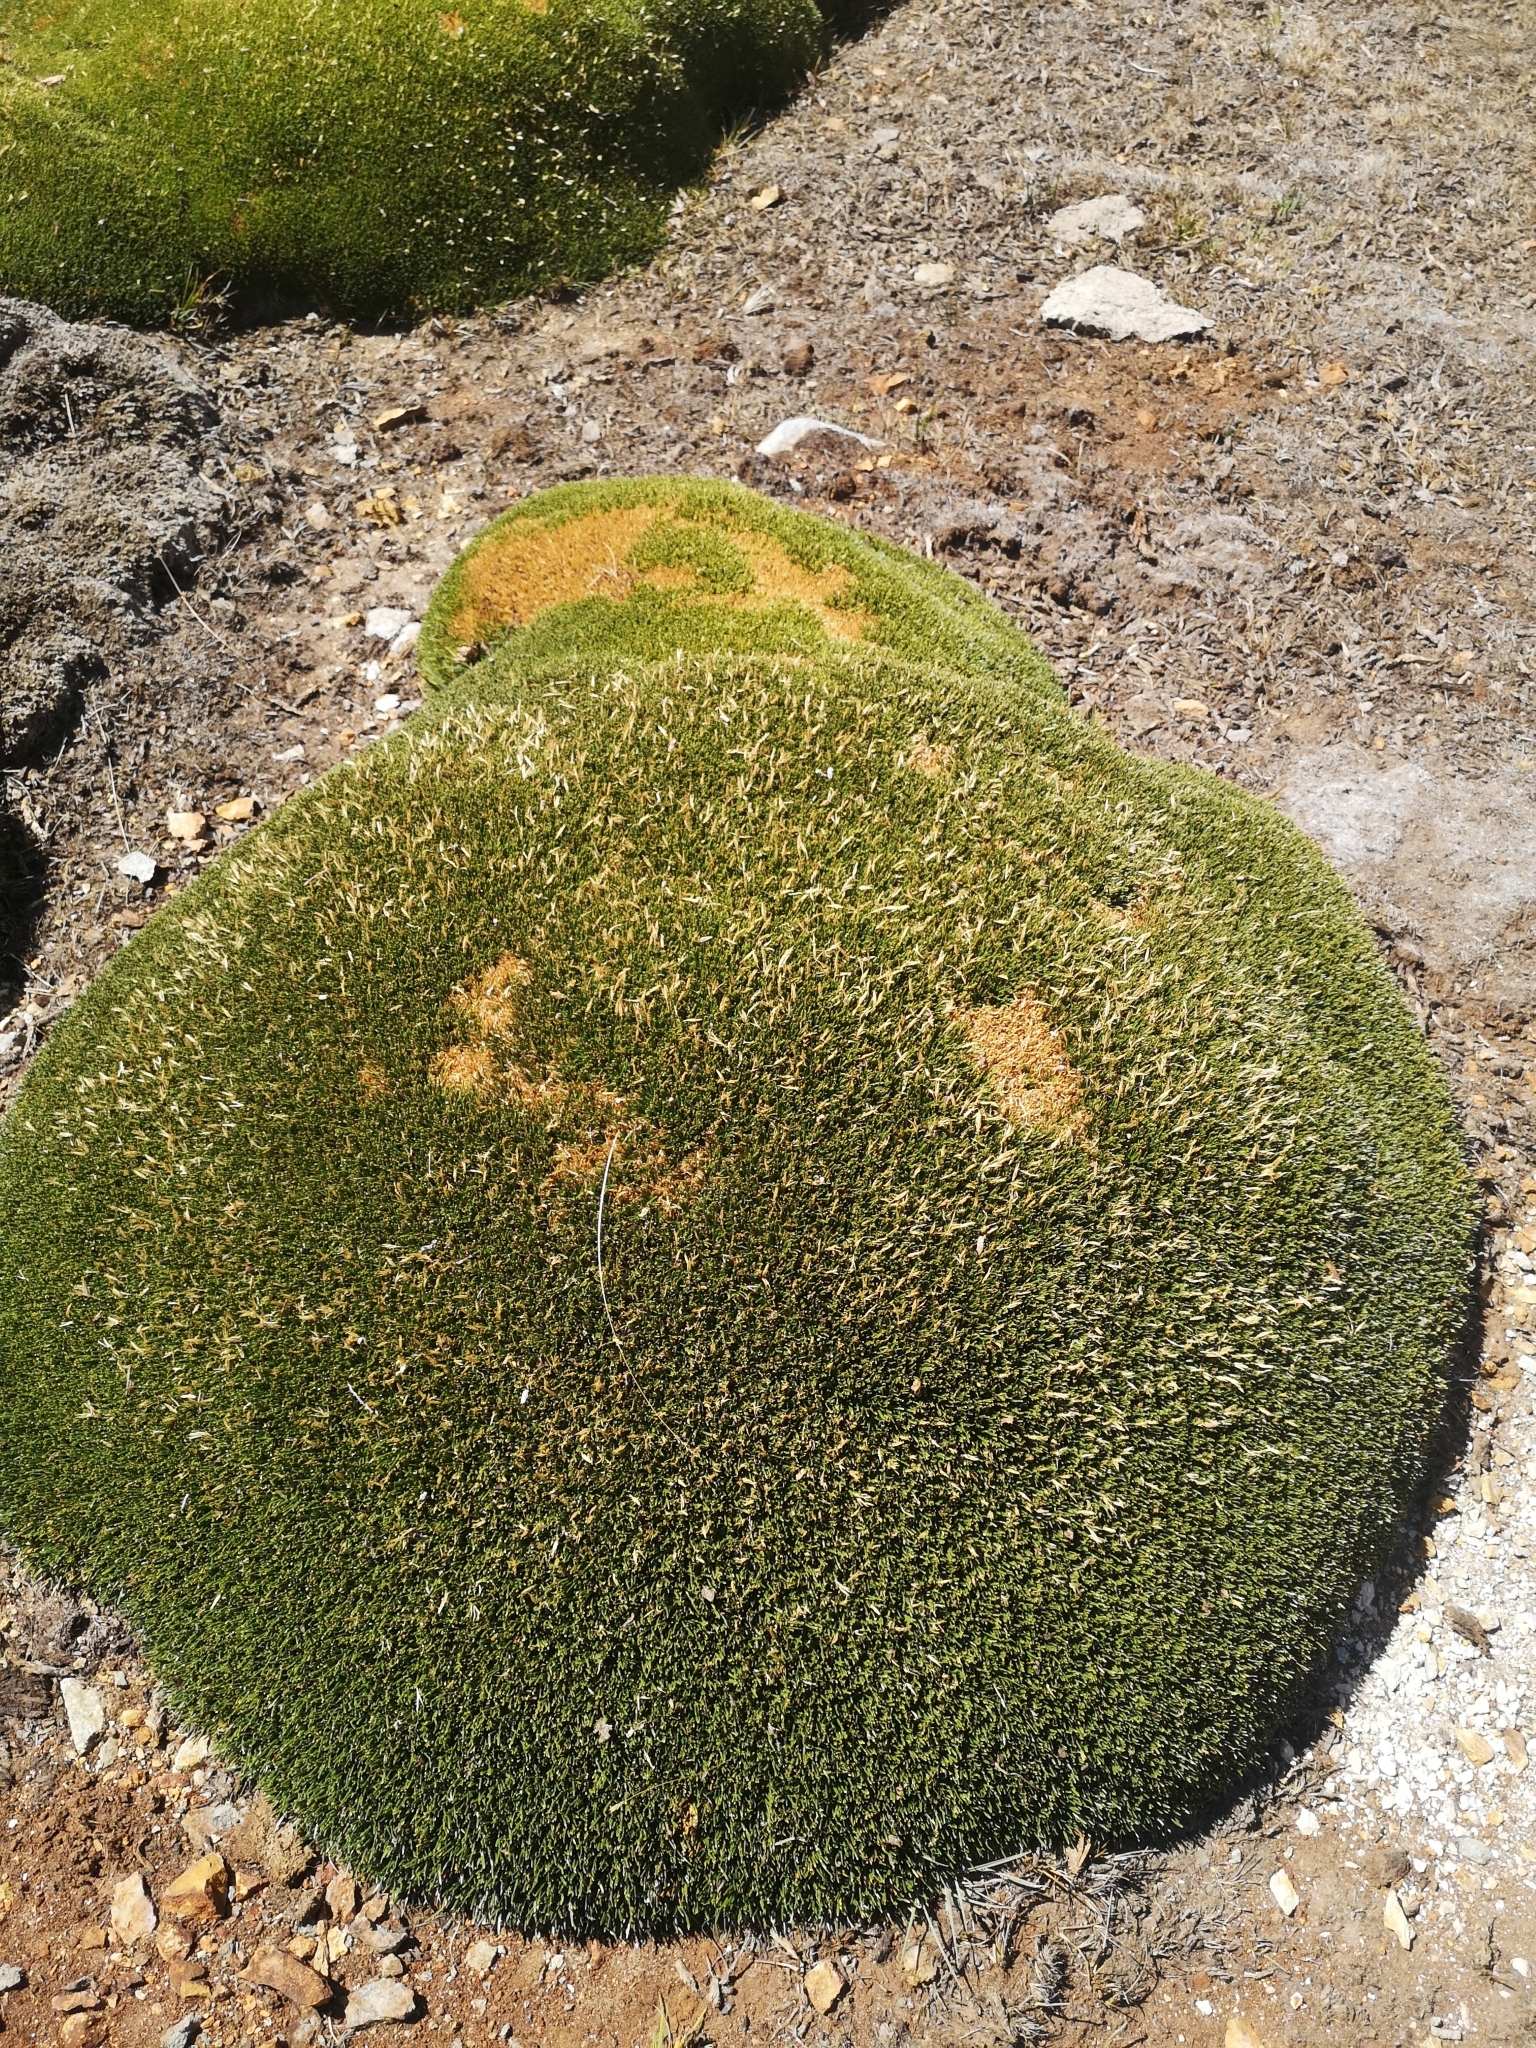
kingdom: Plantae
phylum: Tracheophyta
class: Liliopsida
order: Poales
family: Juncaceae
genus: Patosia
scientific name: Patosia clandestina
